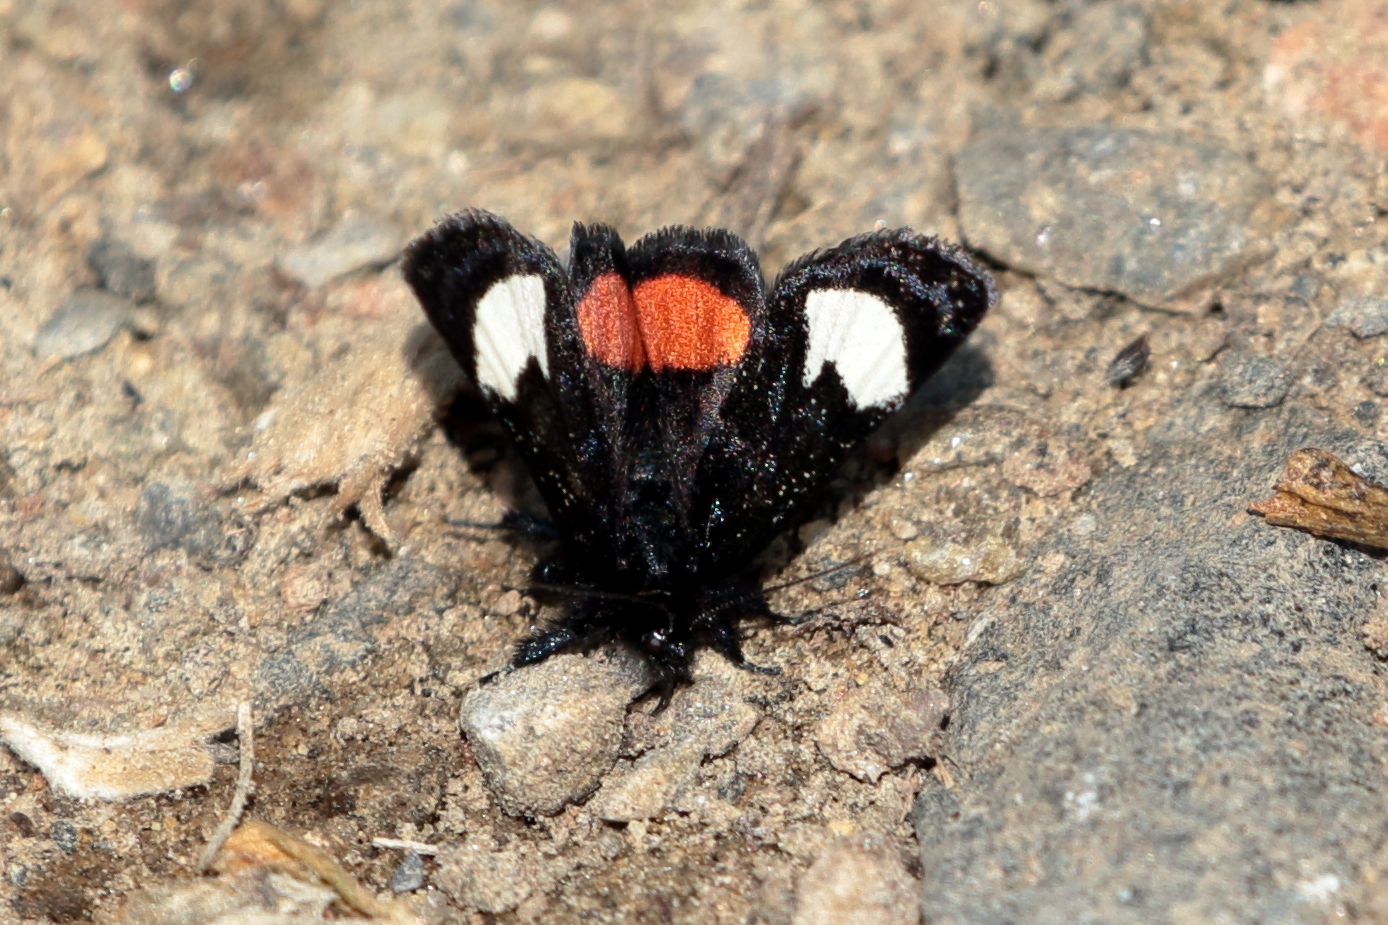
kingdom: Animalia
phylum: Arthropoda
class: Insecta
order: Lepidoptera
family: Noctuidae
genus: Psychomorpha
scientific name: Psychomorpha epimenis
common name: Grapevine epimenis moth
